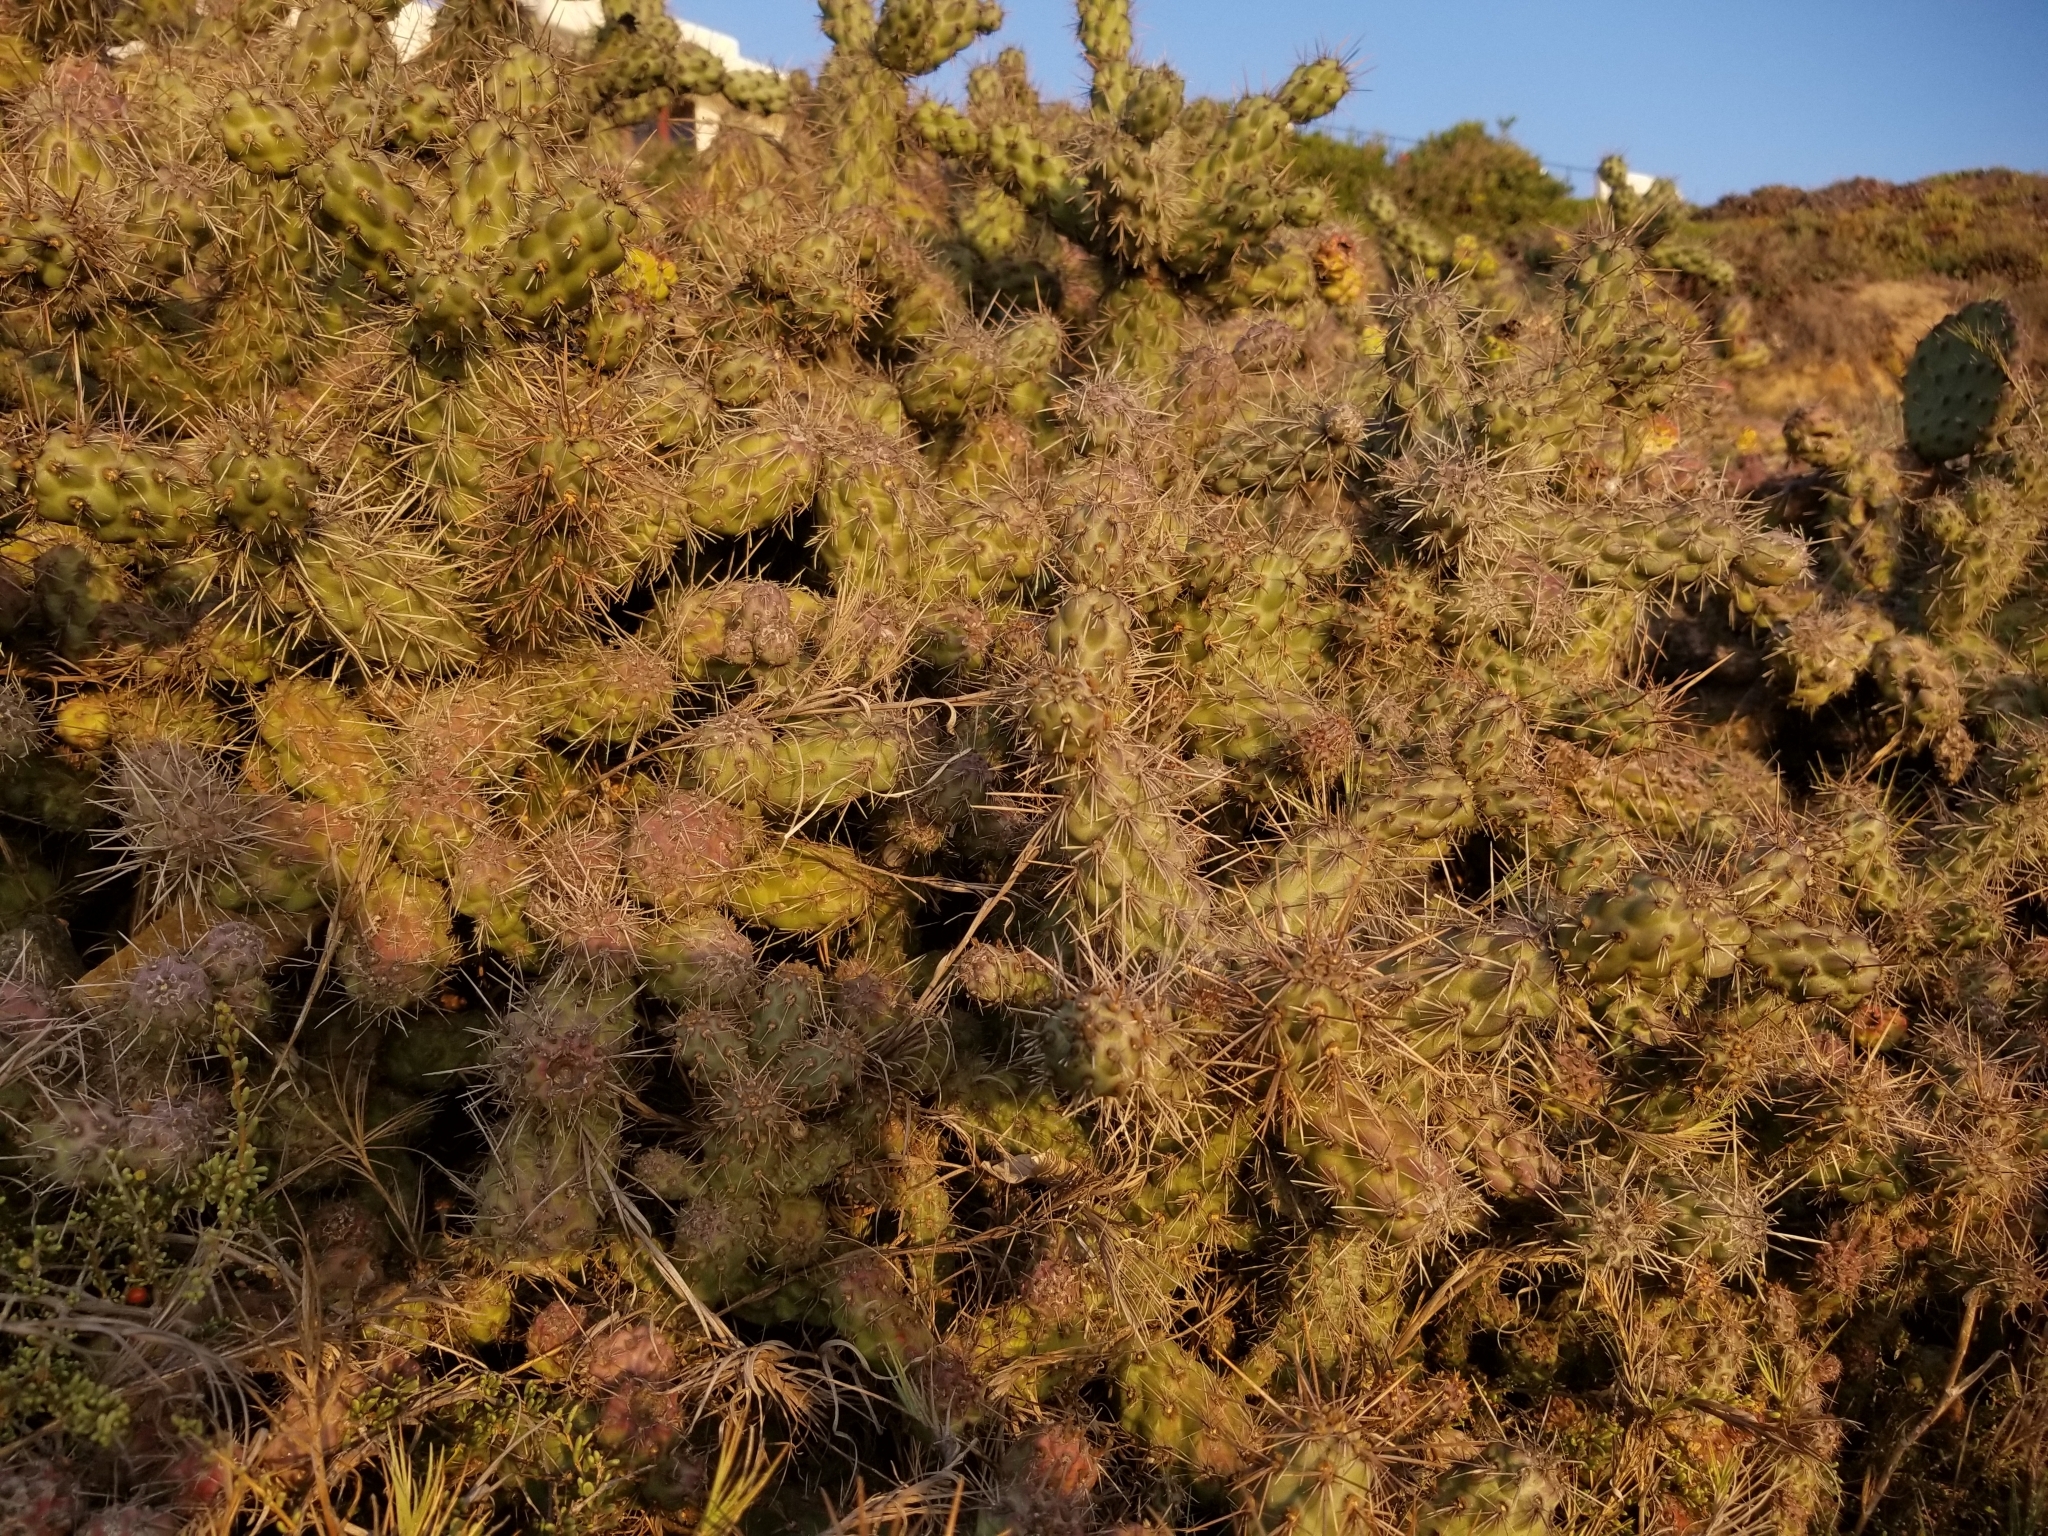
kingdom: Plantae
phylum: Tracheophyta
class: Magnoliopsida
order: Caryophyllales
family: Cactaceae
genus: Cylindropuntia
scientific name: Cylindropuntia prolifera
